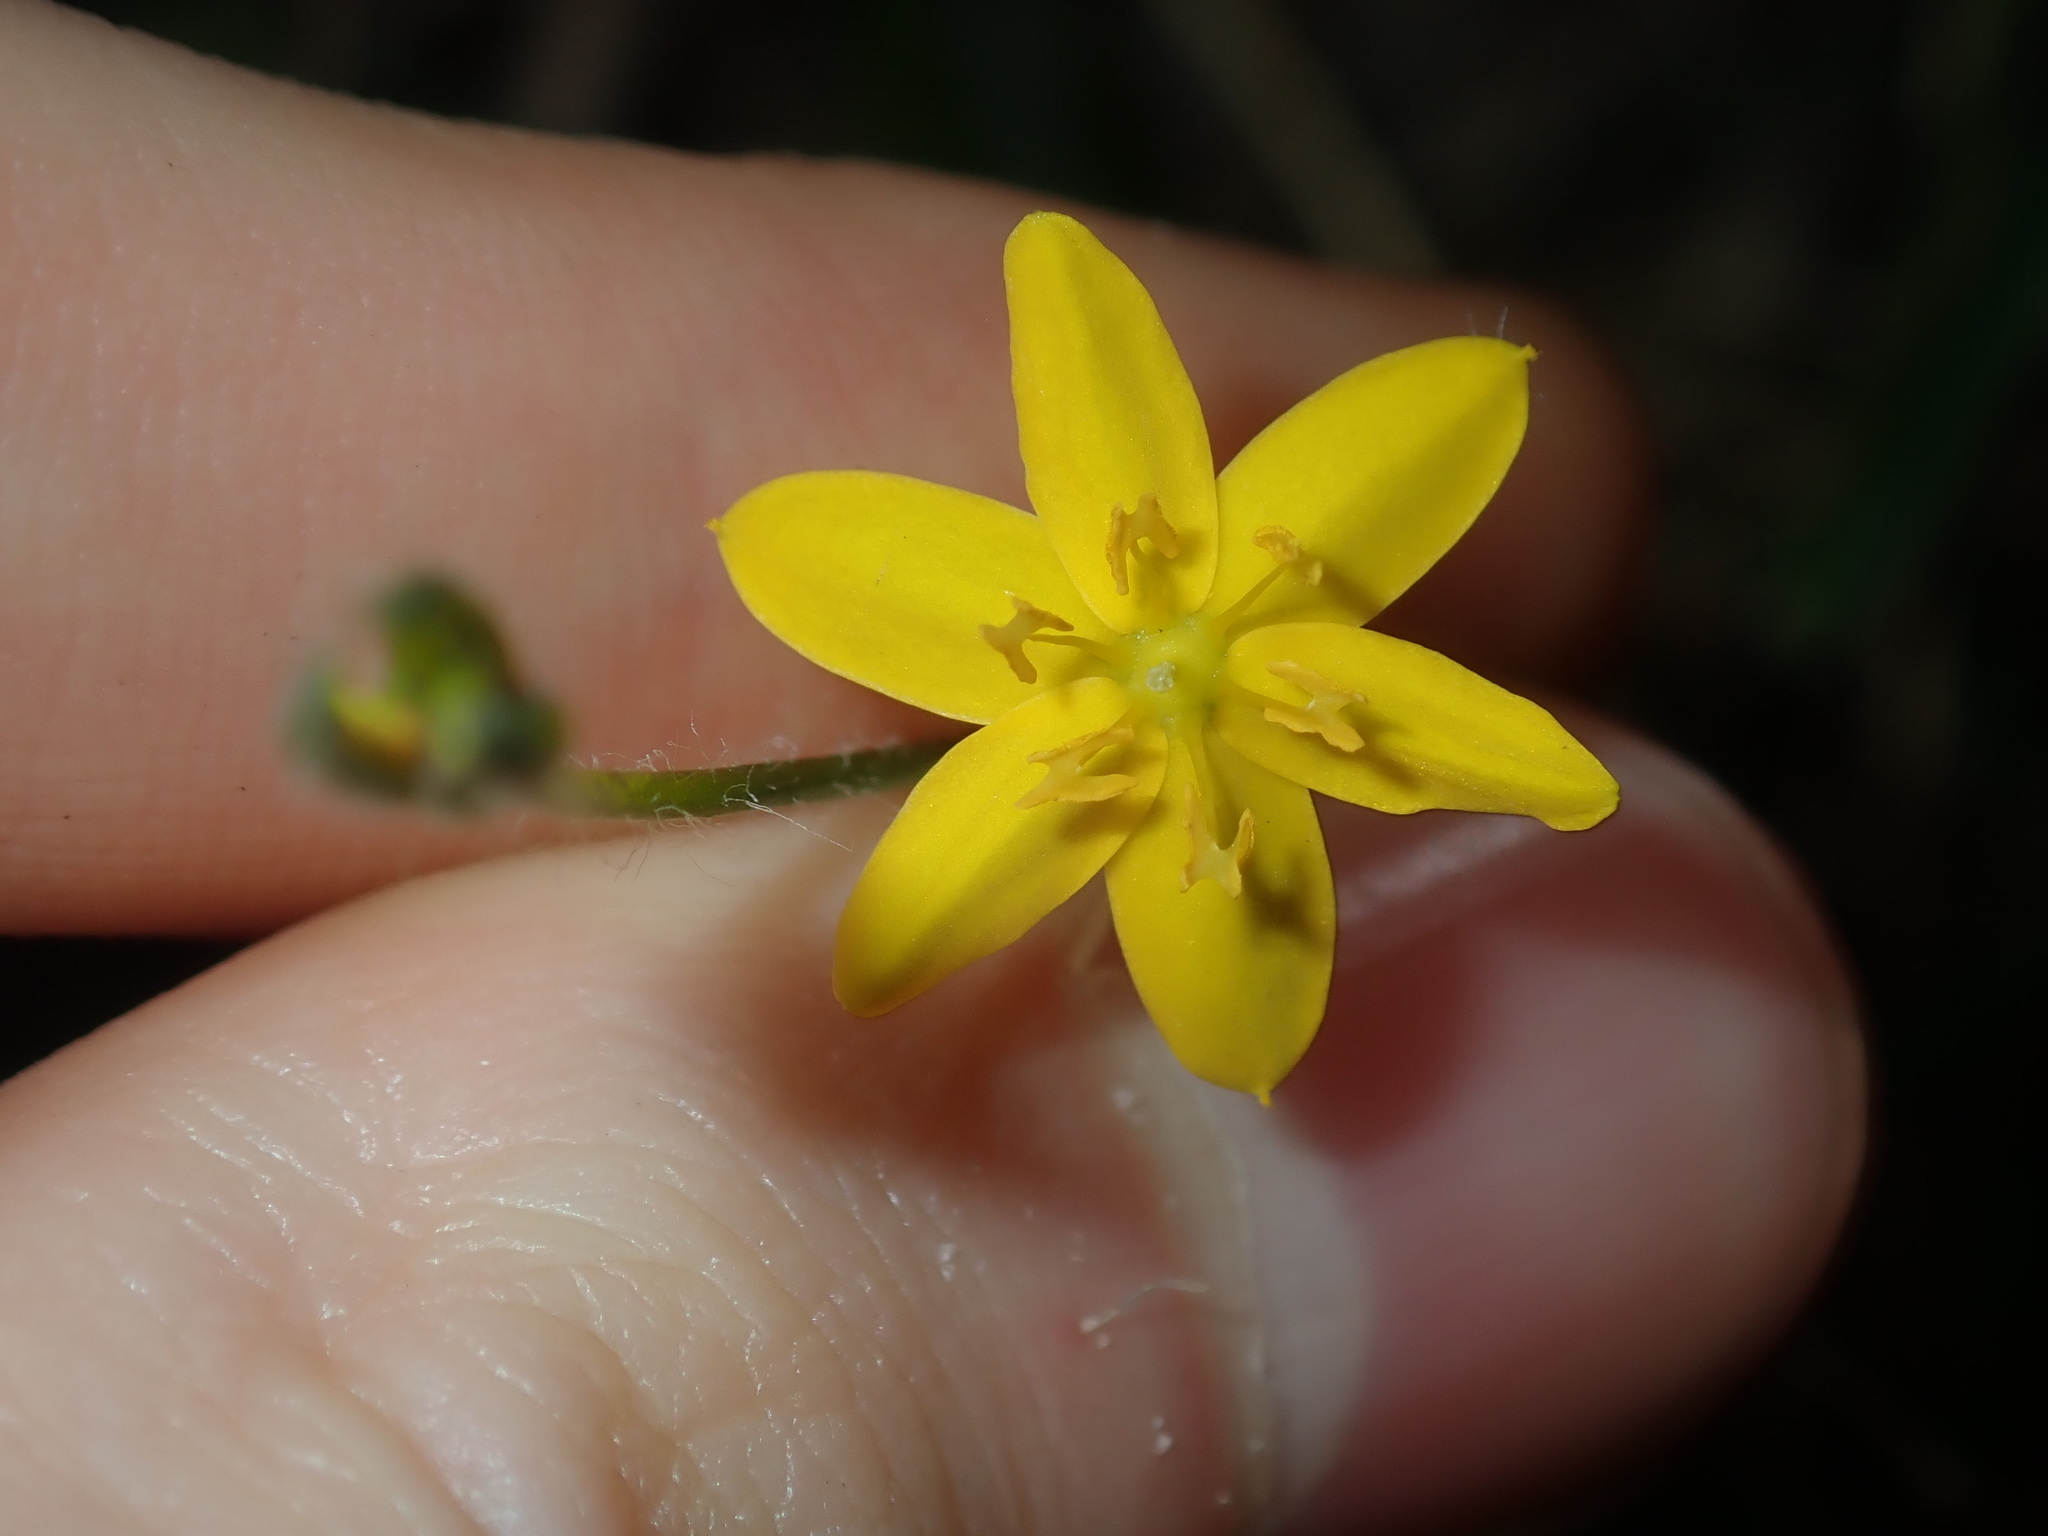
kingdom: Plantae
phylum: Tracheophyta
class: Liliopsida
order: Asparagales
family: Hypoxidaceae
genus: Hypoxis
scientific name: Hypoxis hygrometrica
